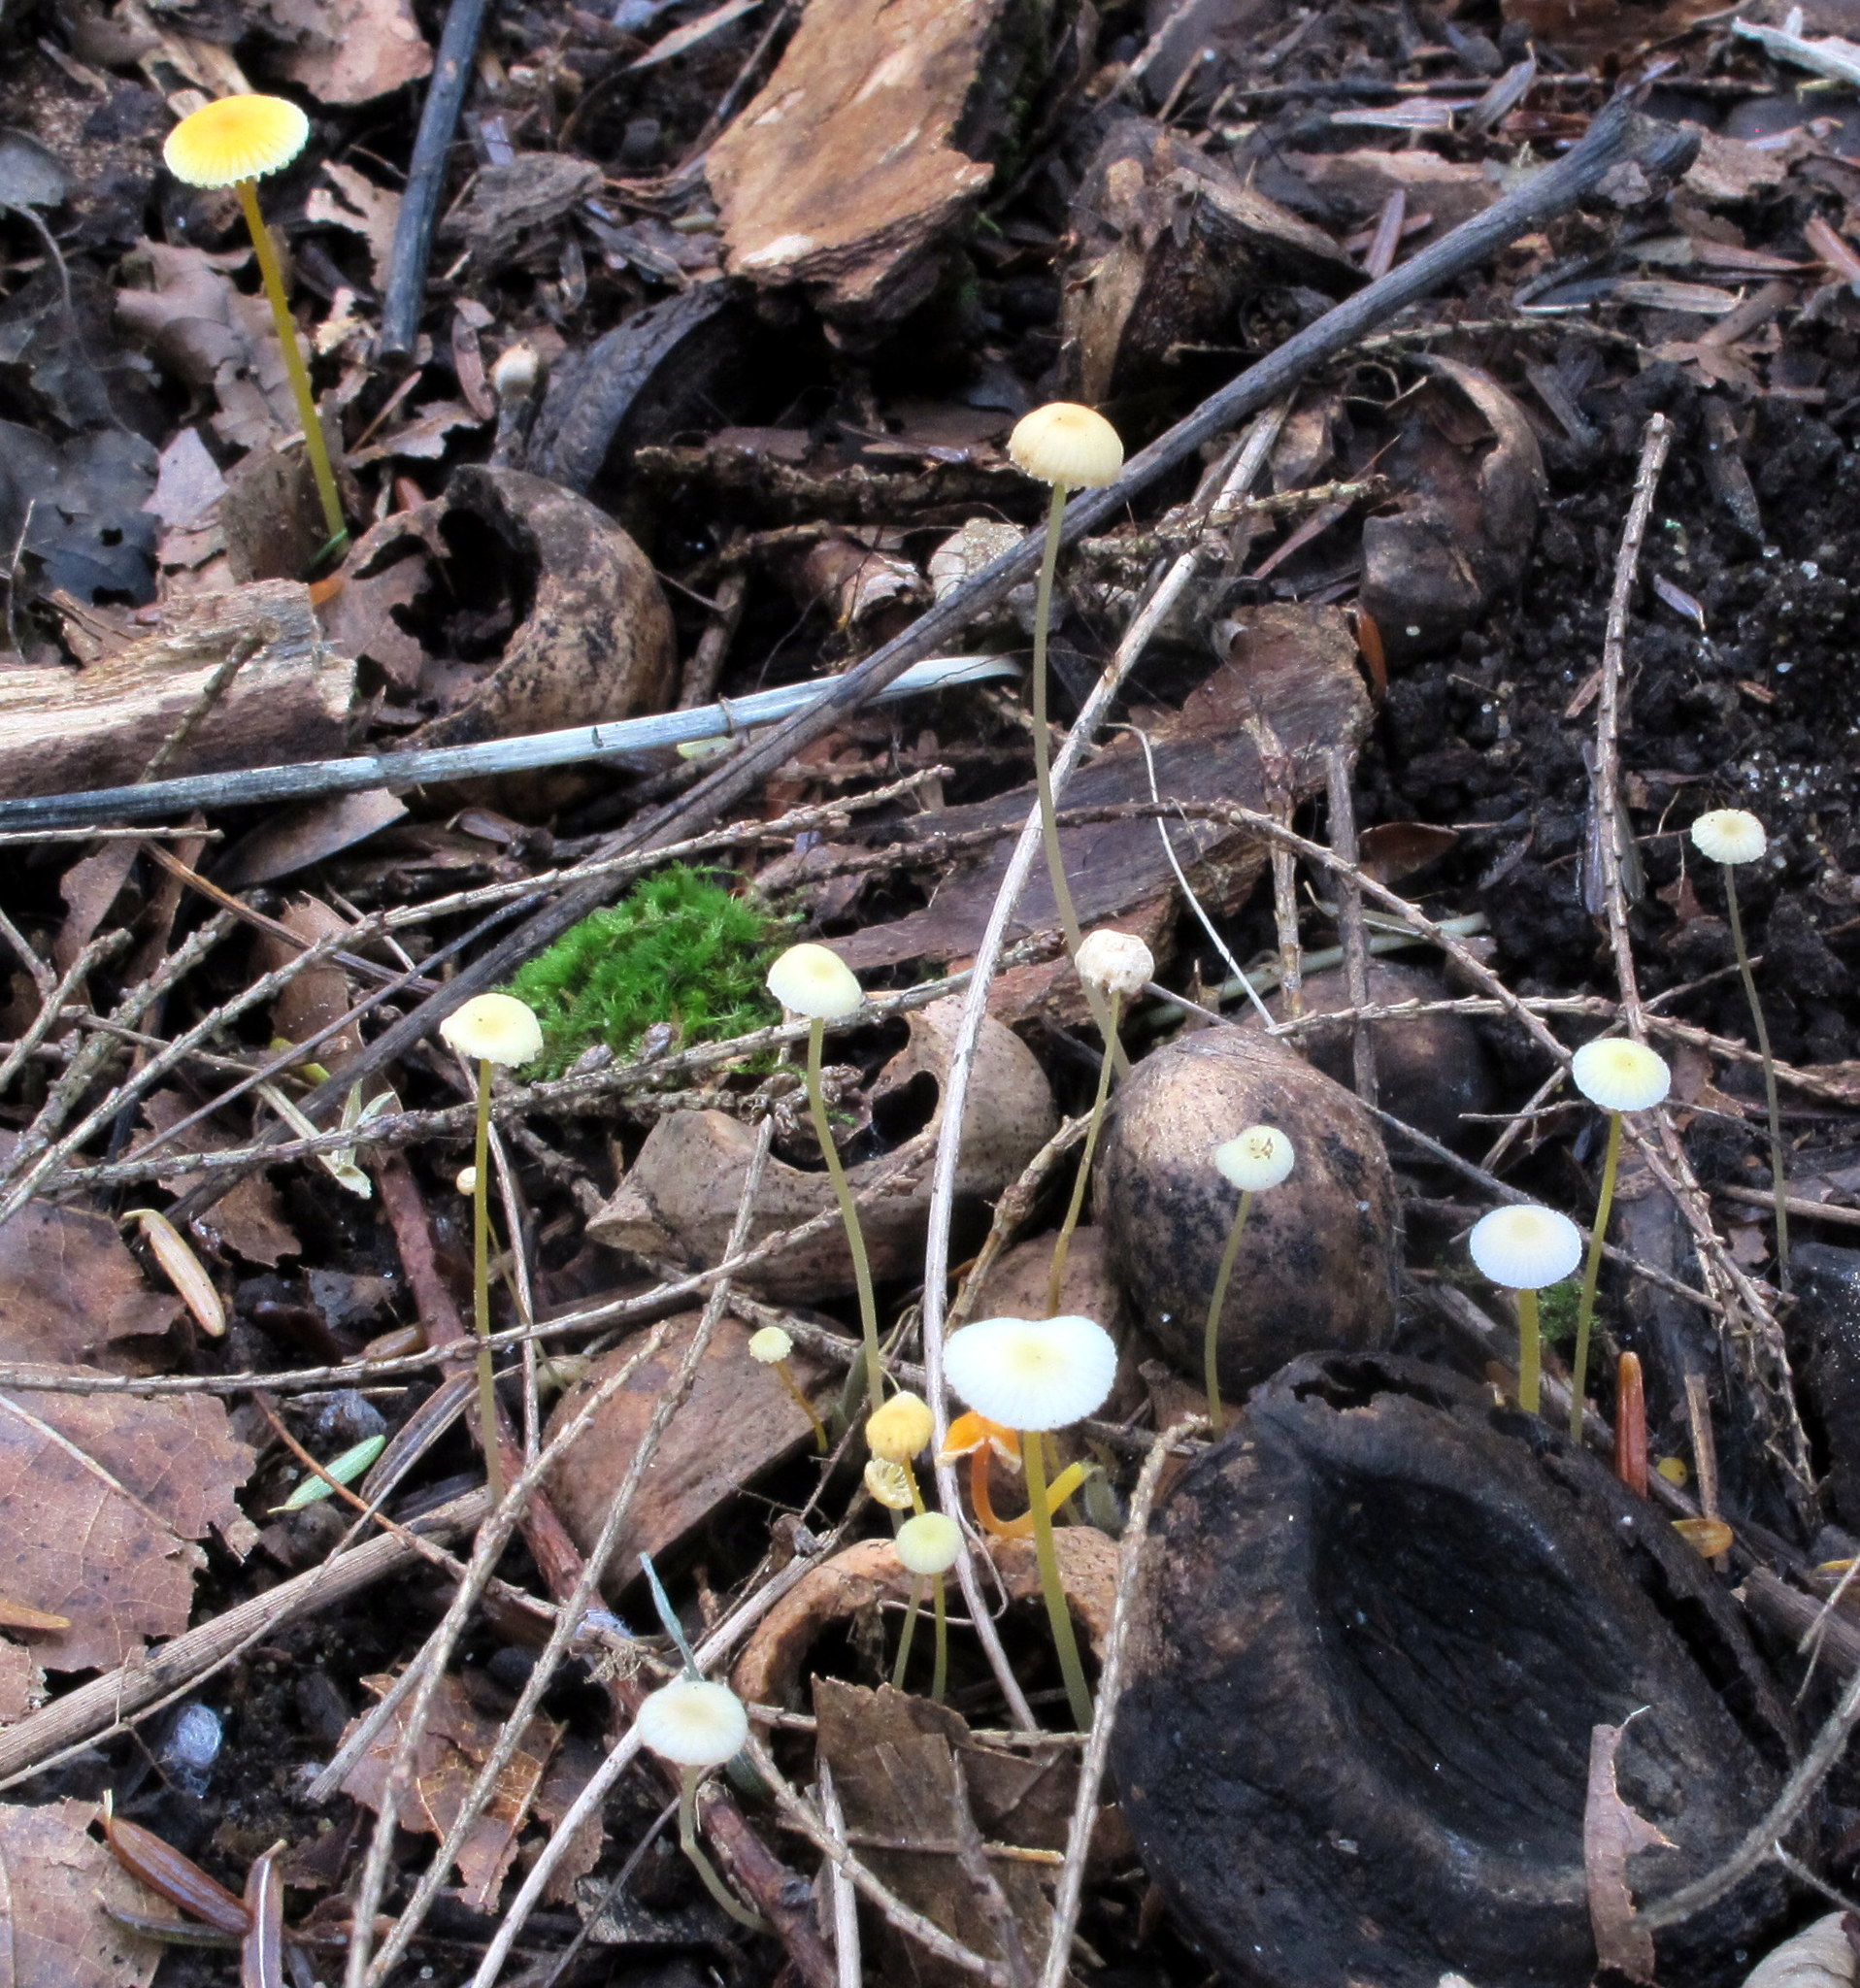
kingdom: Fungi
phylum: Basidiomycota
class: Agaricomycetes
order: Agaricales
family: Mycenaceae
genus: Mycena
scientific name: Mycena crocea
